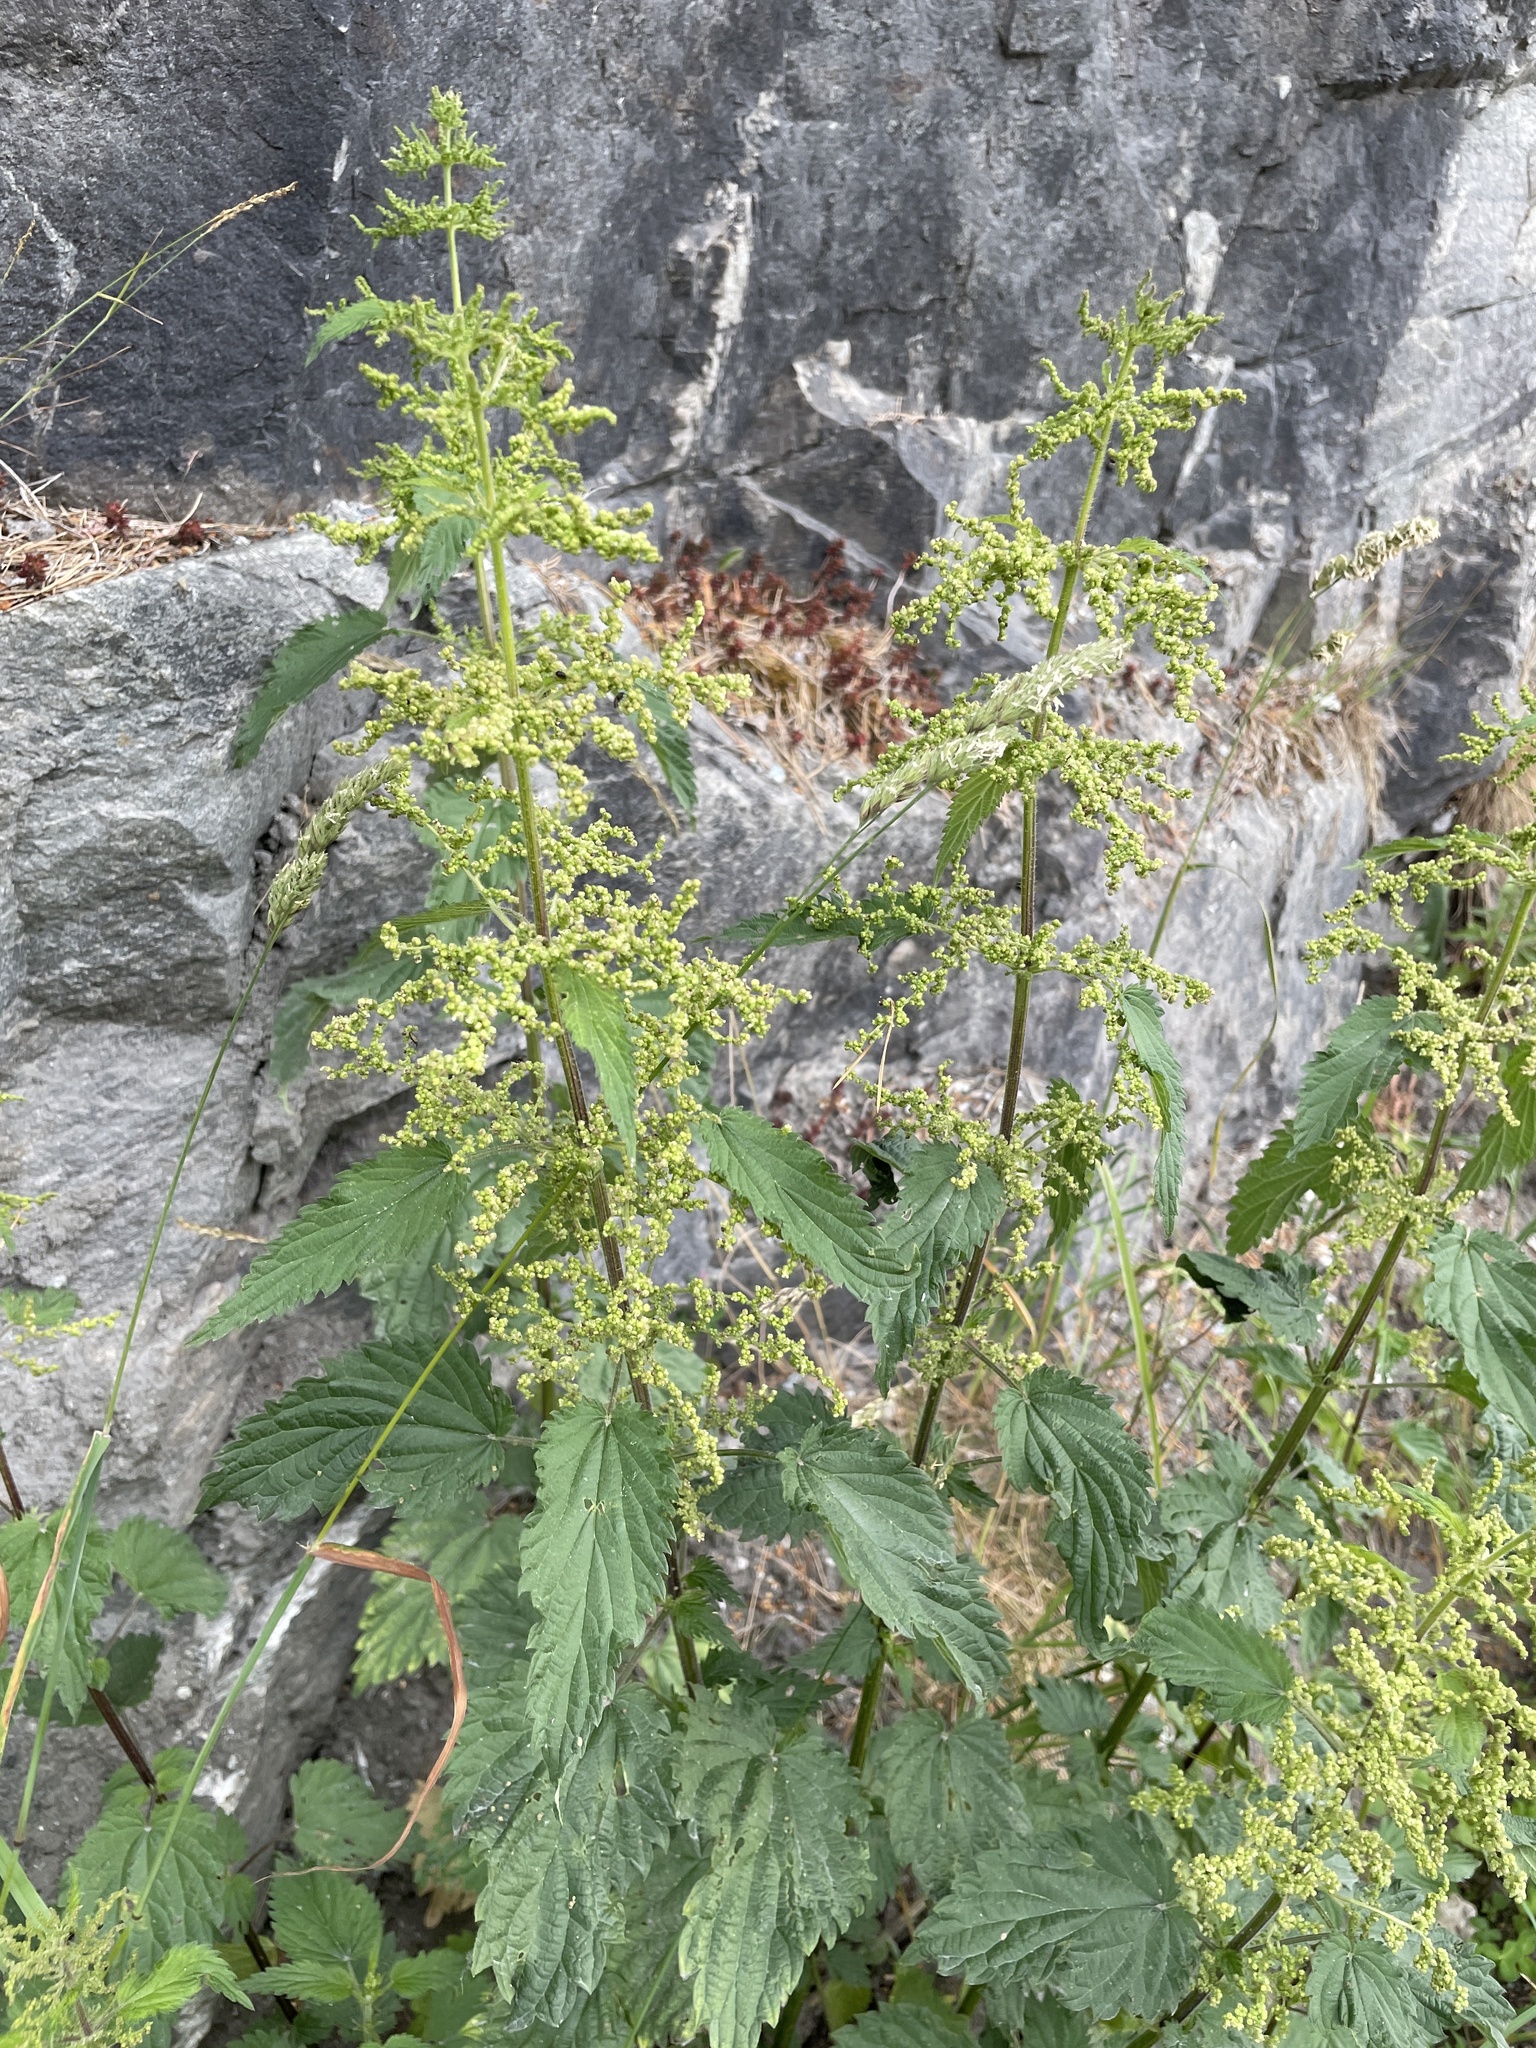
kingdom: Plantae
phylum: Tracheophyta
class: Magnoliopsida
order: Rosales
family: Urticaceae
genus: Urtica
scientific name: Urtica dioica
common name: Common nettle
